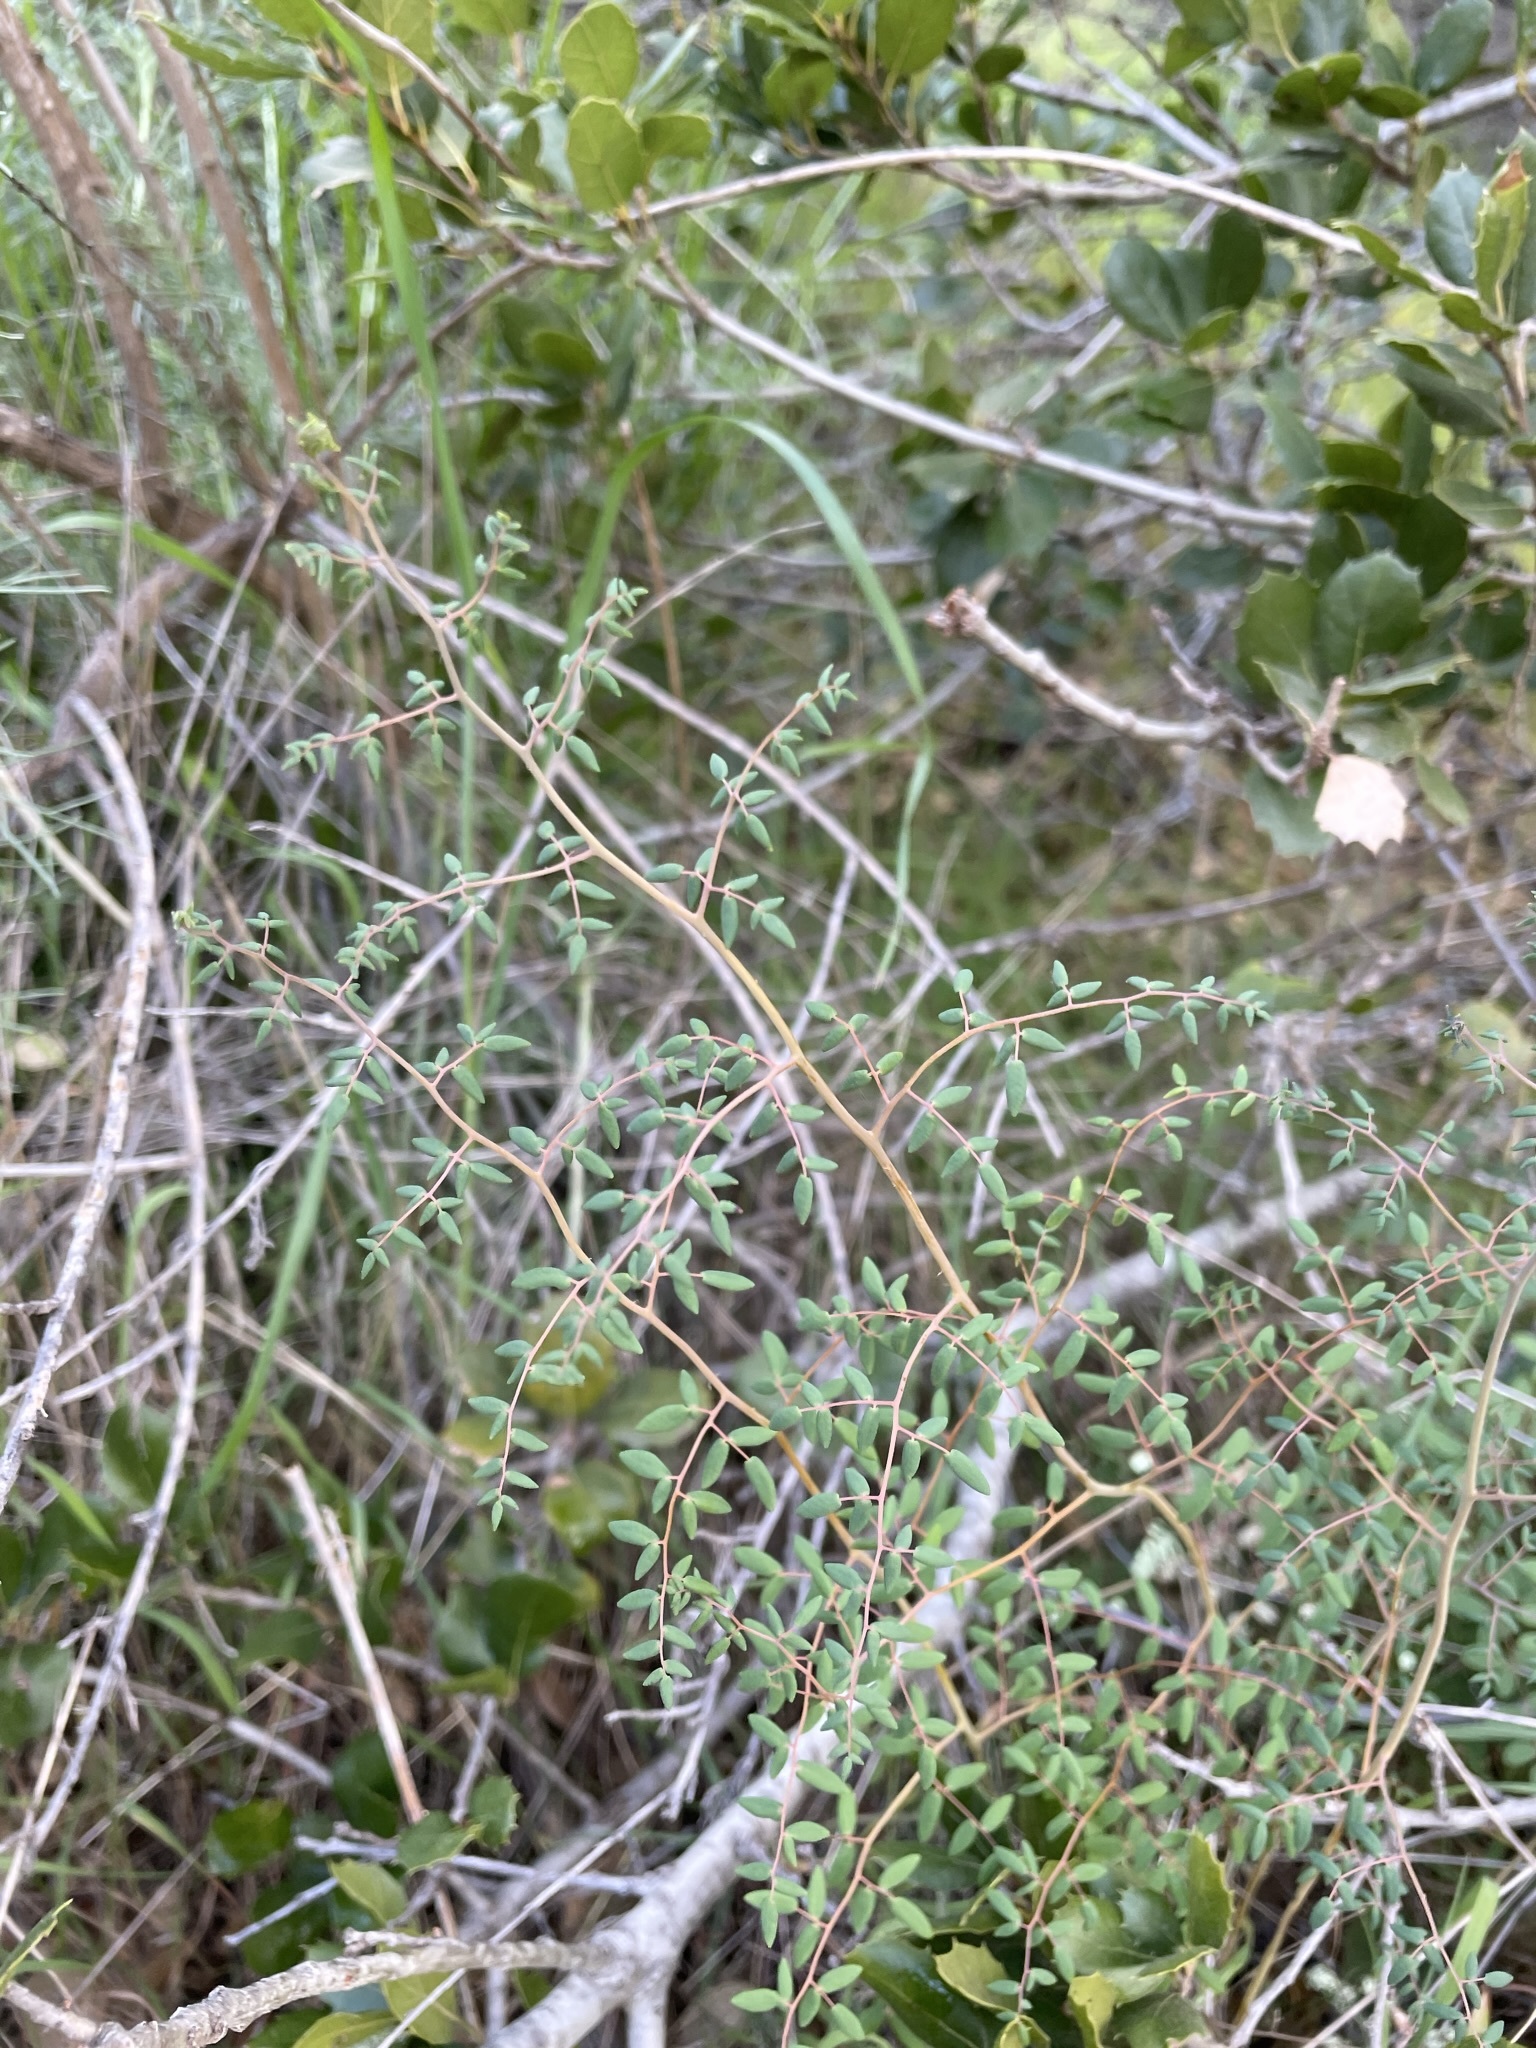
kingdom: Plantae
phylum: Tracheophyta
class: Polypodiopsida
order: Polypodiales
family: Pteridaceae
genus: Pellaea
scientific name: Pellaea andromedifolia
